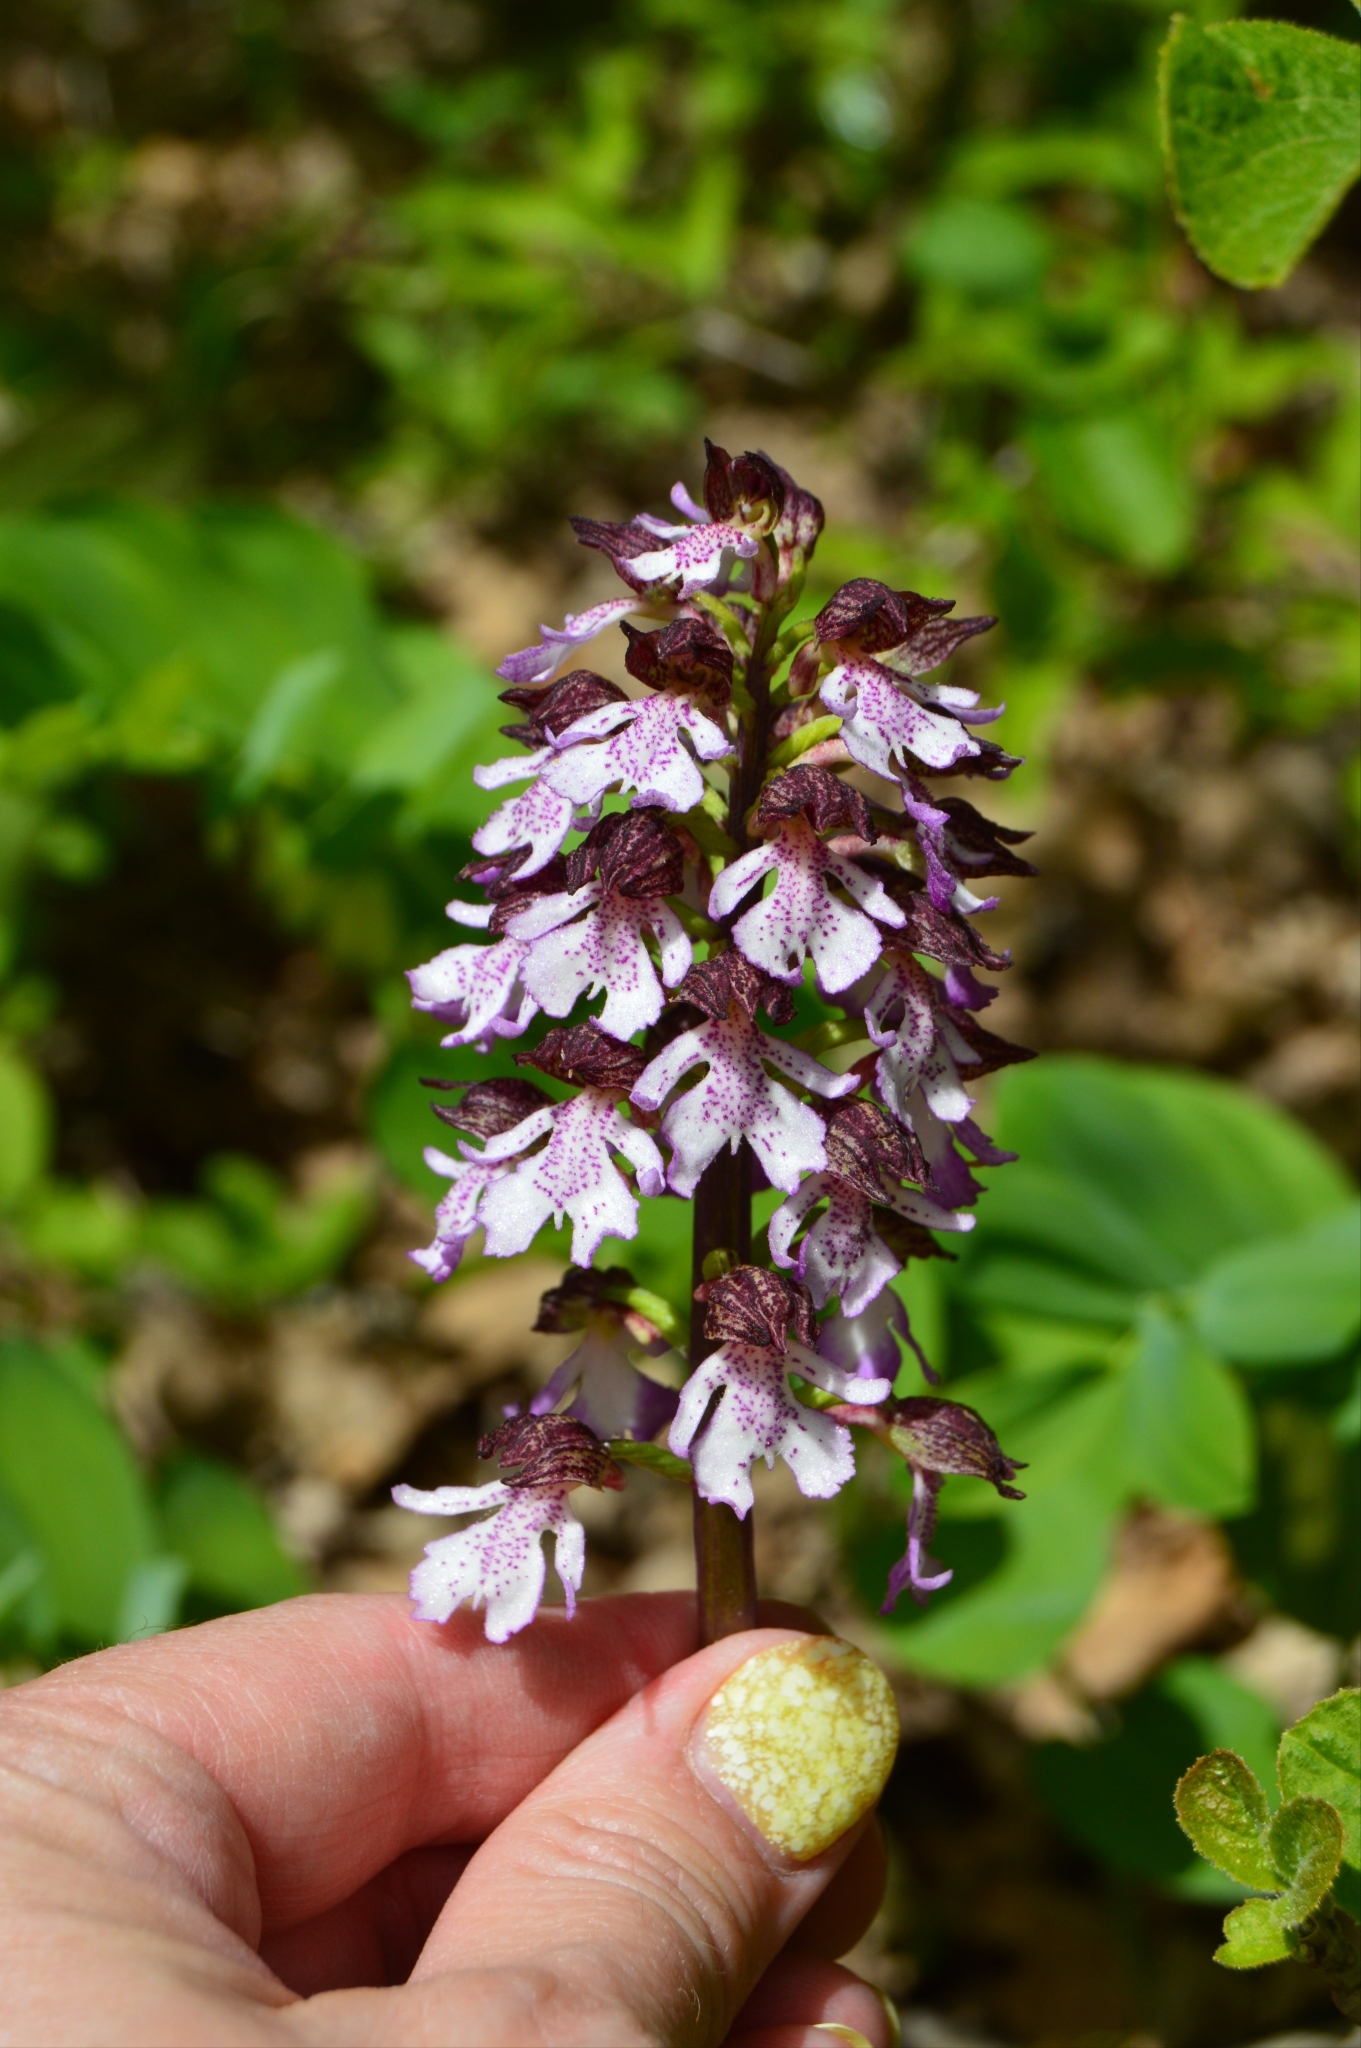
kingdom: Plantae
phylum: Tracheophyta
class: Liliopsida
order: Asparagales
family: Orchidaceae
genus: Orchis
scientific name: Orchis purpurea
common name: Lady orchid
